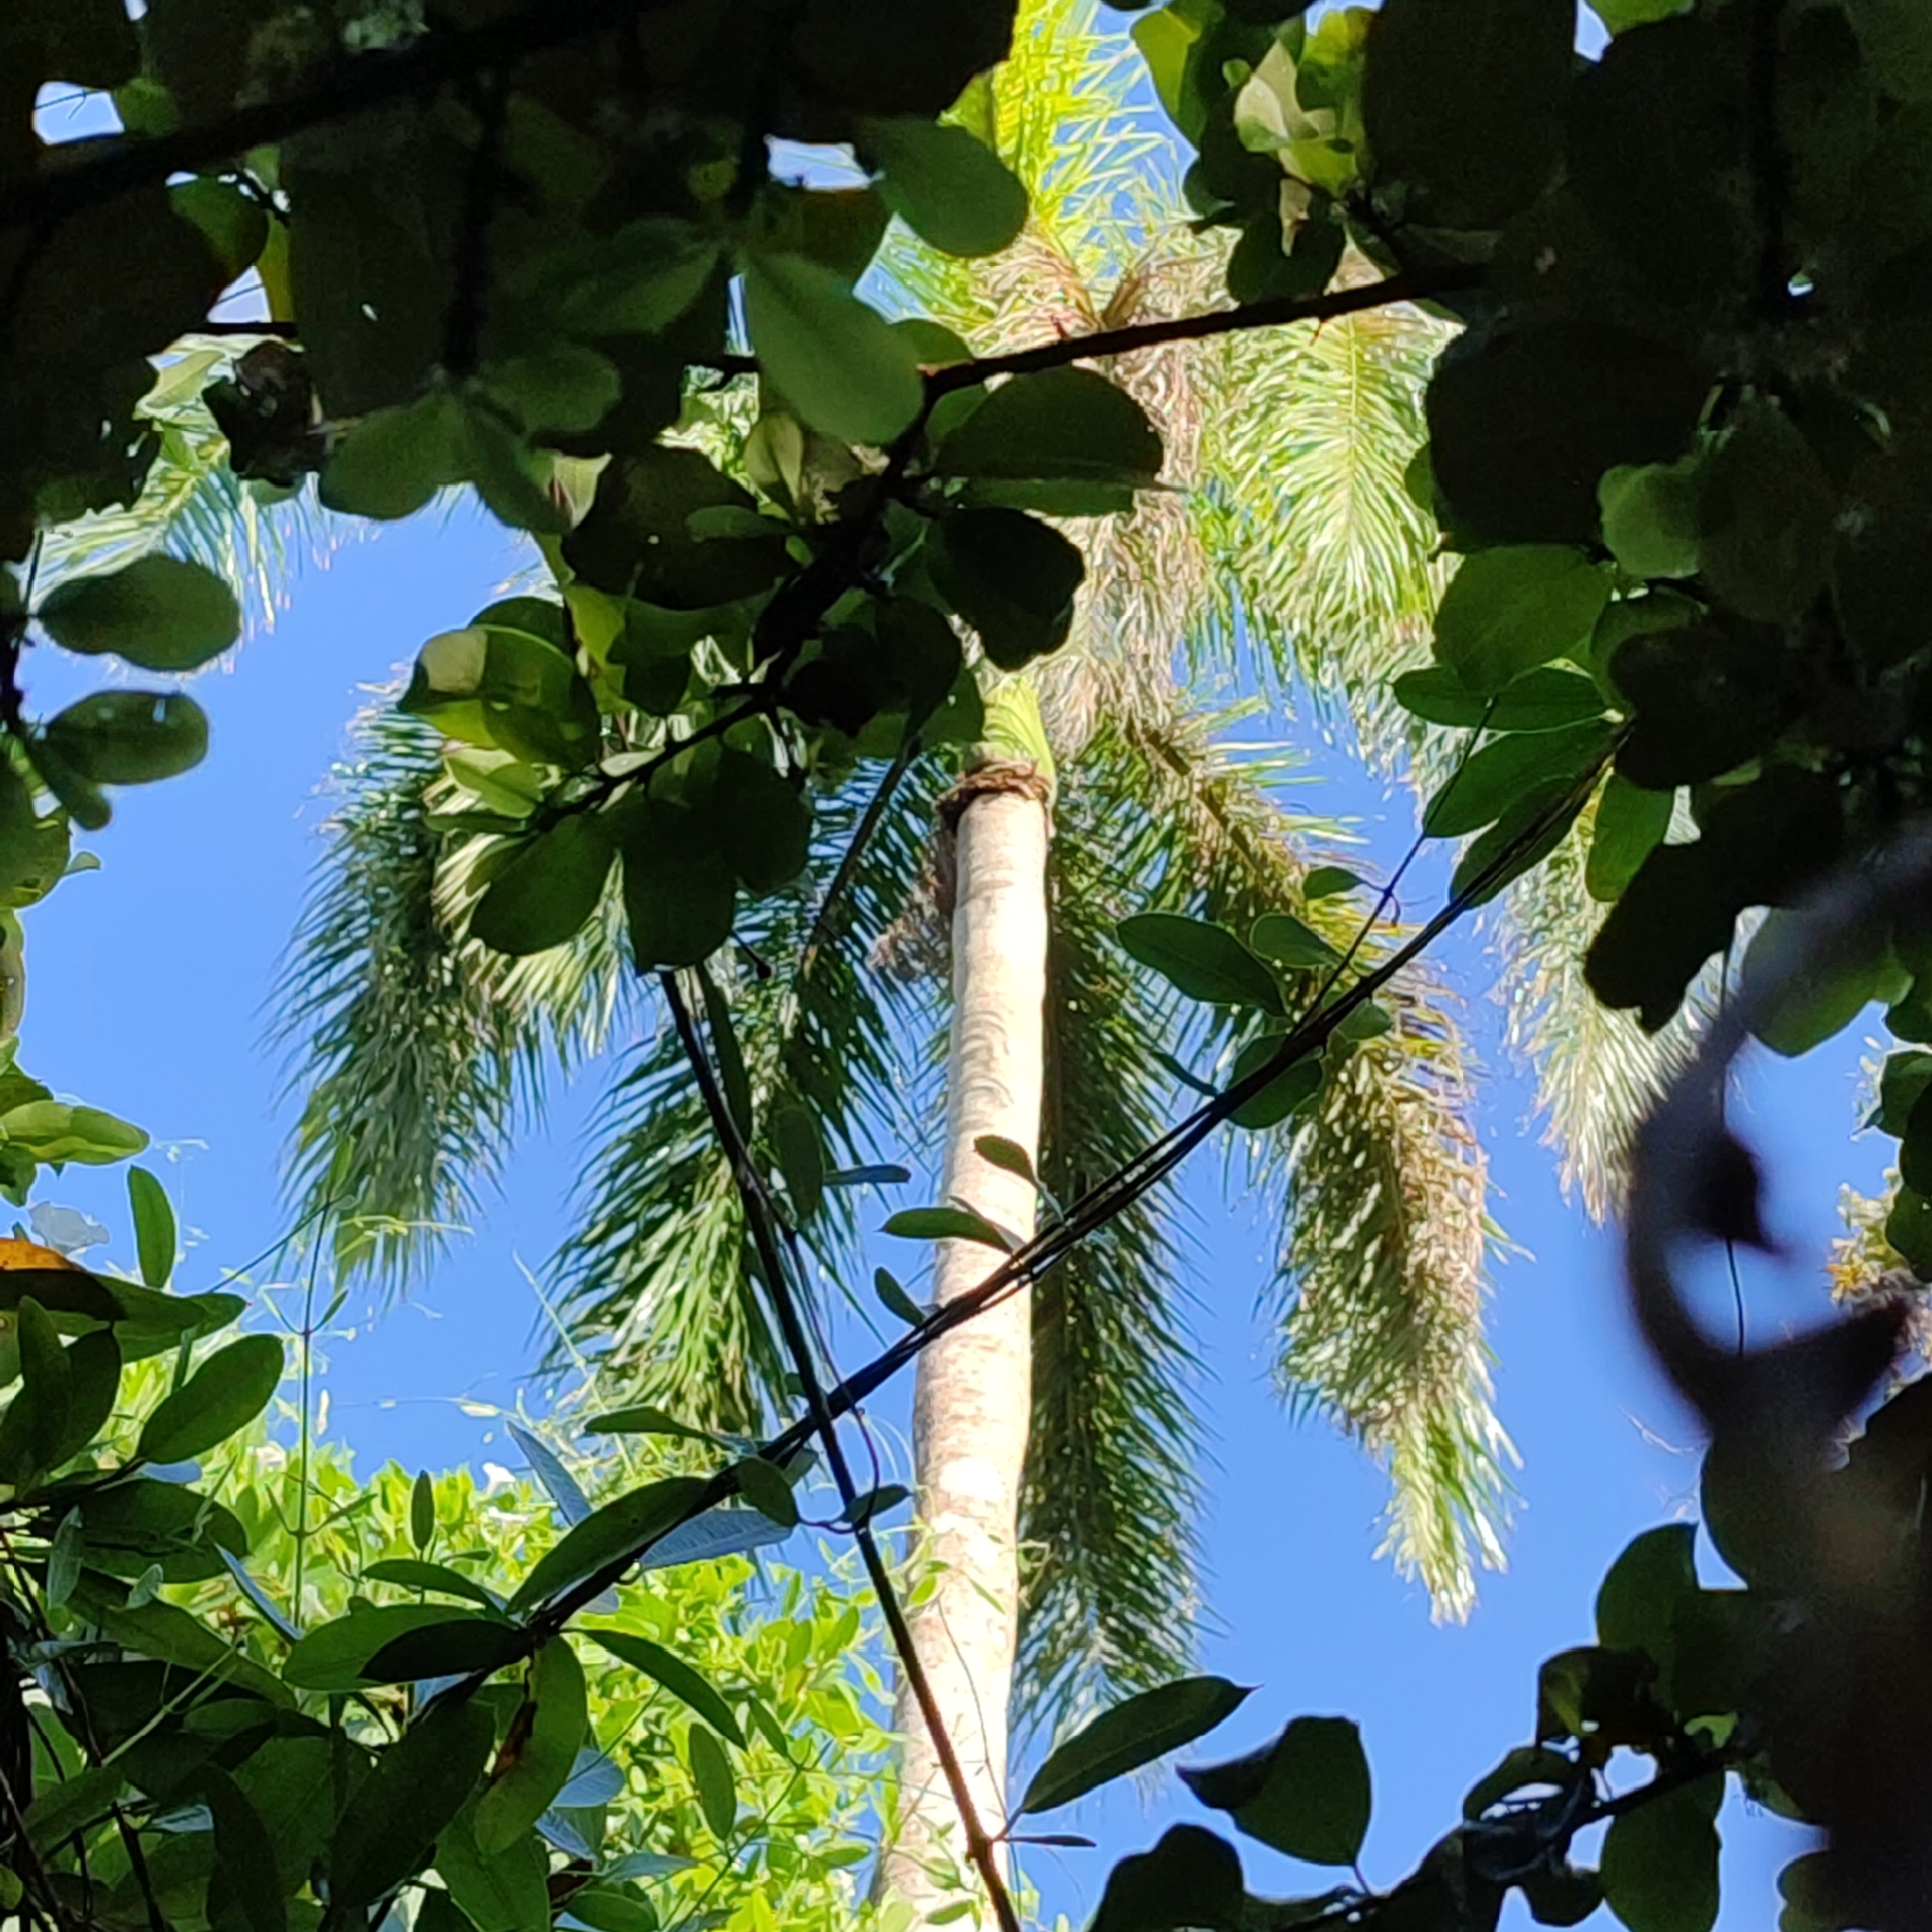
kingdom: Plantae
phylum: Tracheophyta
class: Liliopsida
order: Arecales
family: Arecaceae
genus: Roystonea
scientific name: Roystonea regia
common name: Florida royal palm
